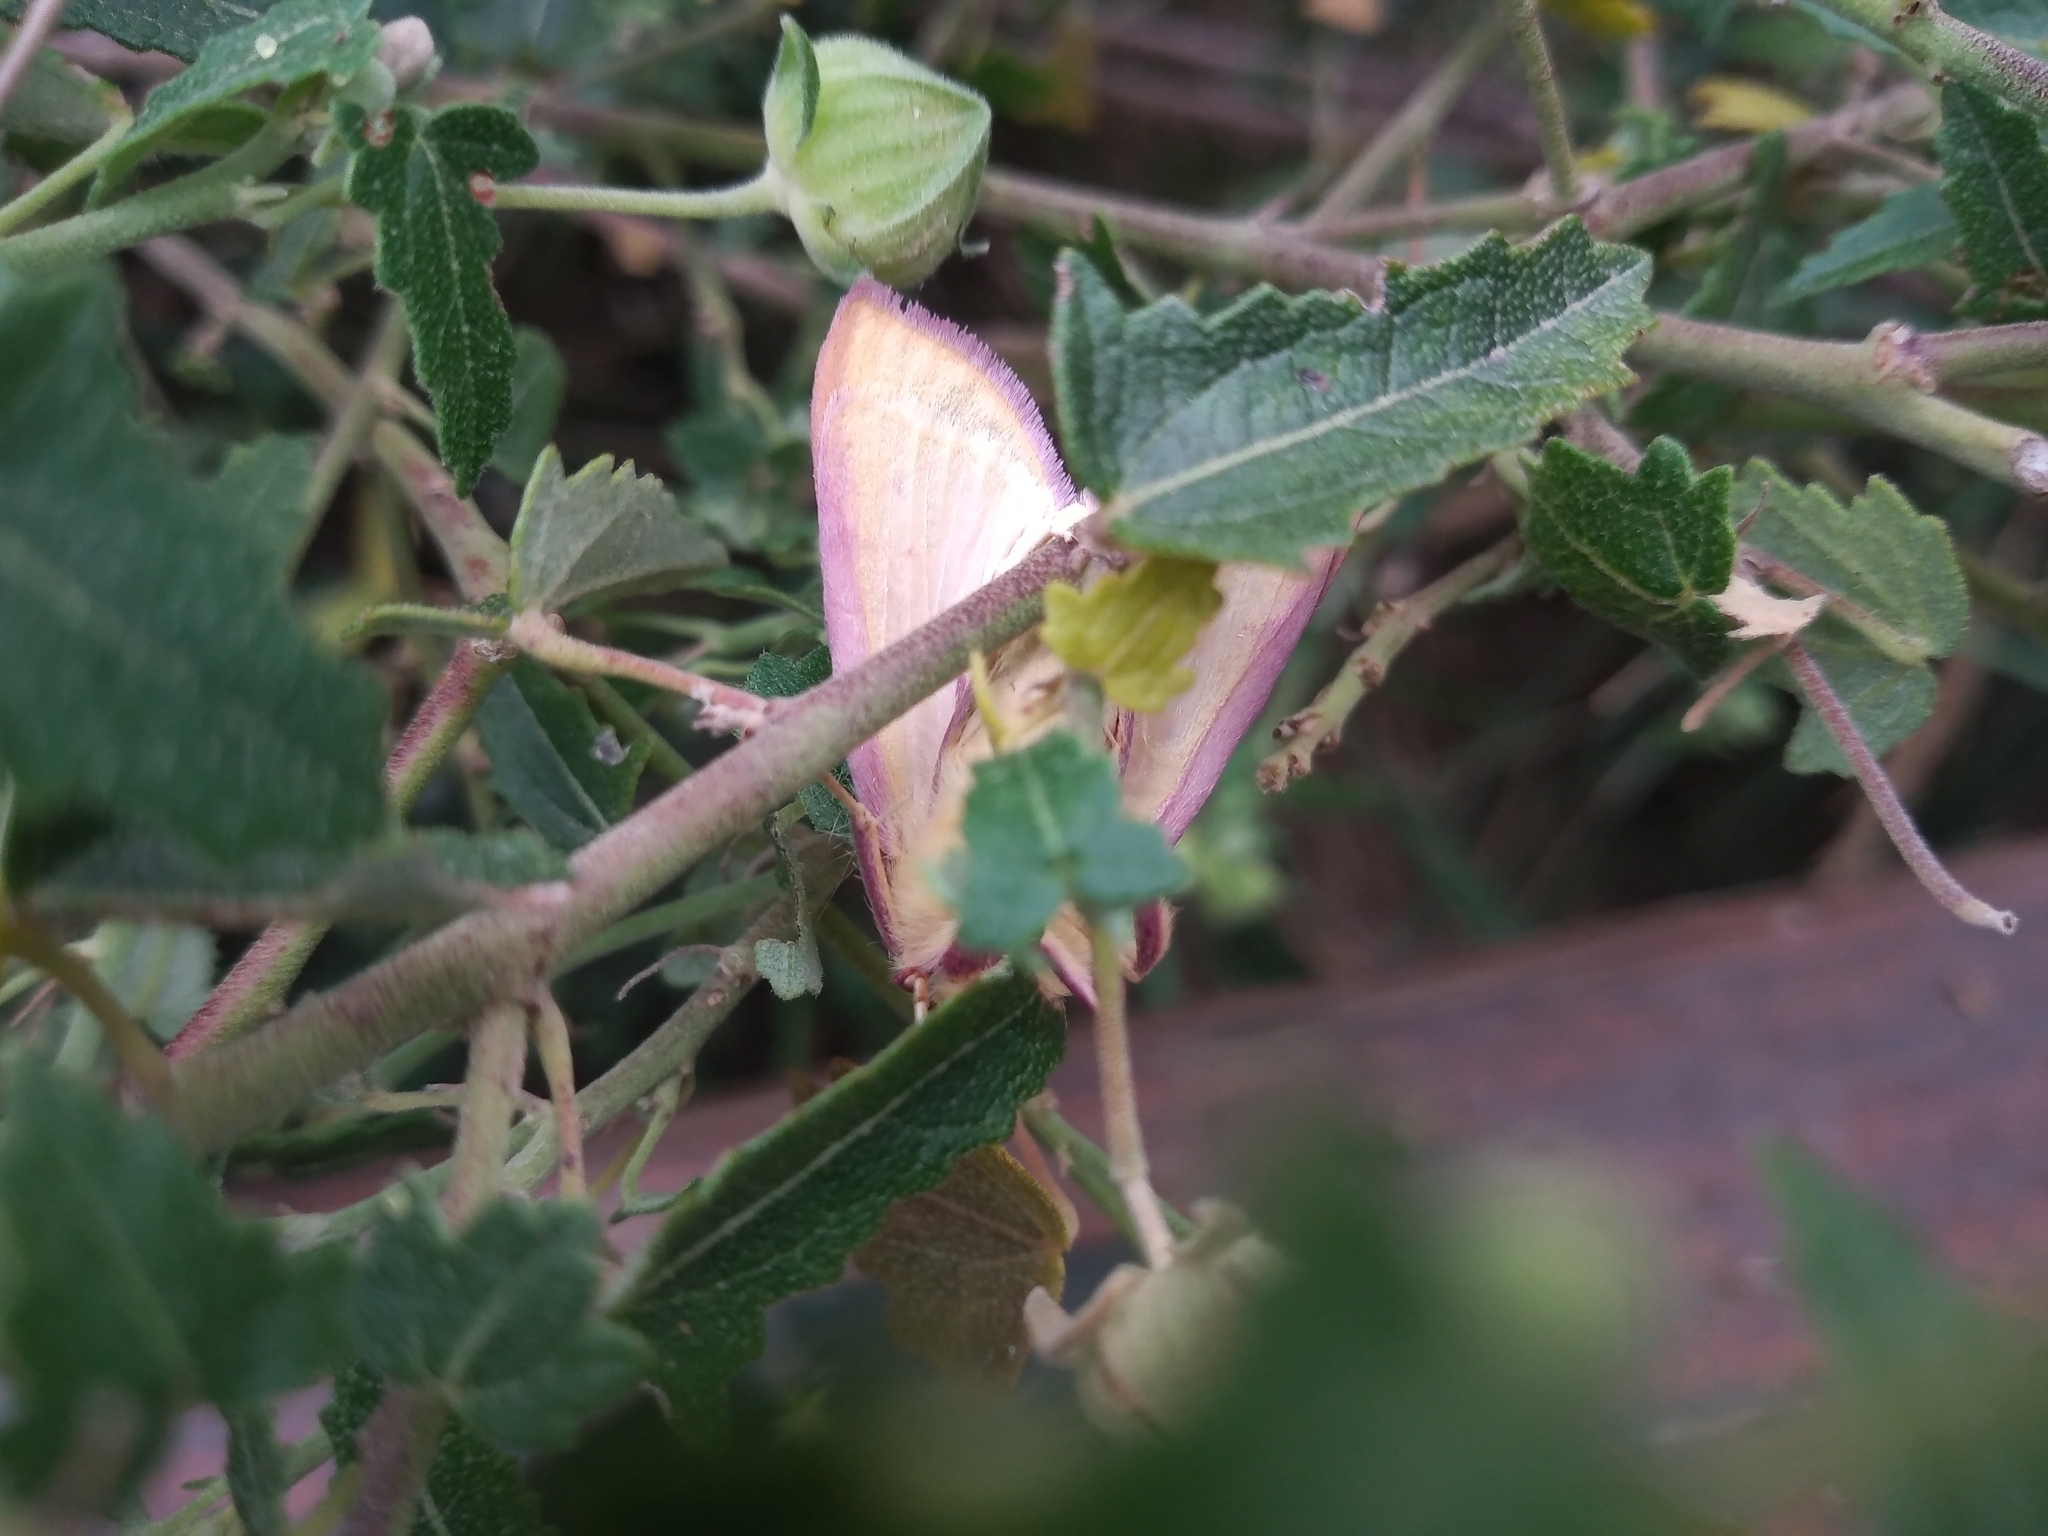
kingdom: Animalia
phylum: Arthropoda
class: Insecta
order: Lepidoptera
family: Crambidae
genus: Polygrammodes
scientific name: Polygrammodes sanguiguttalis
